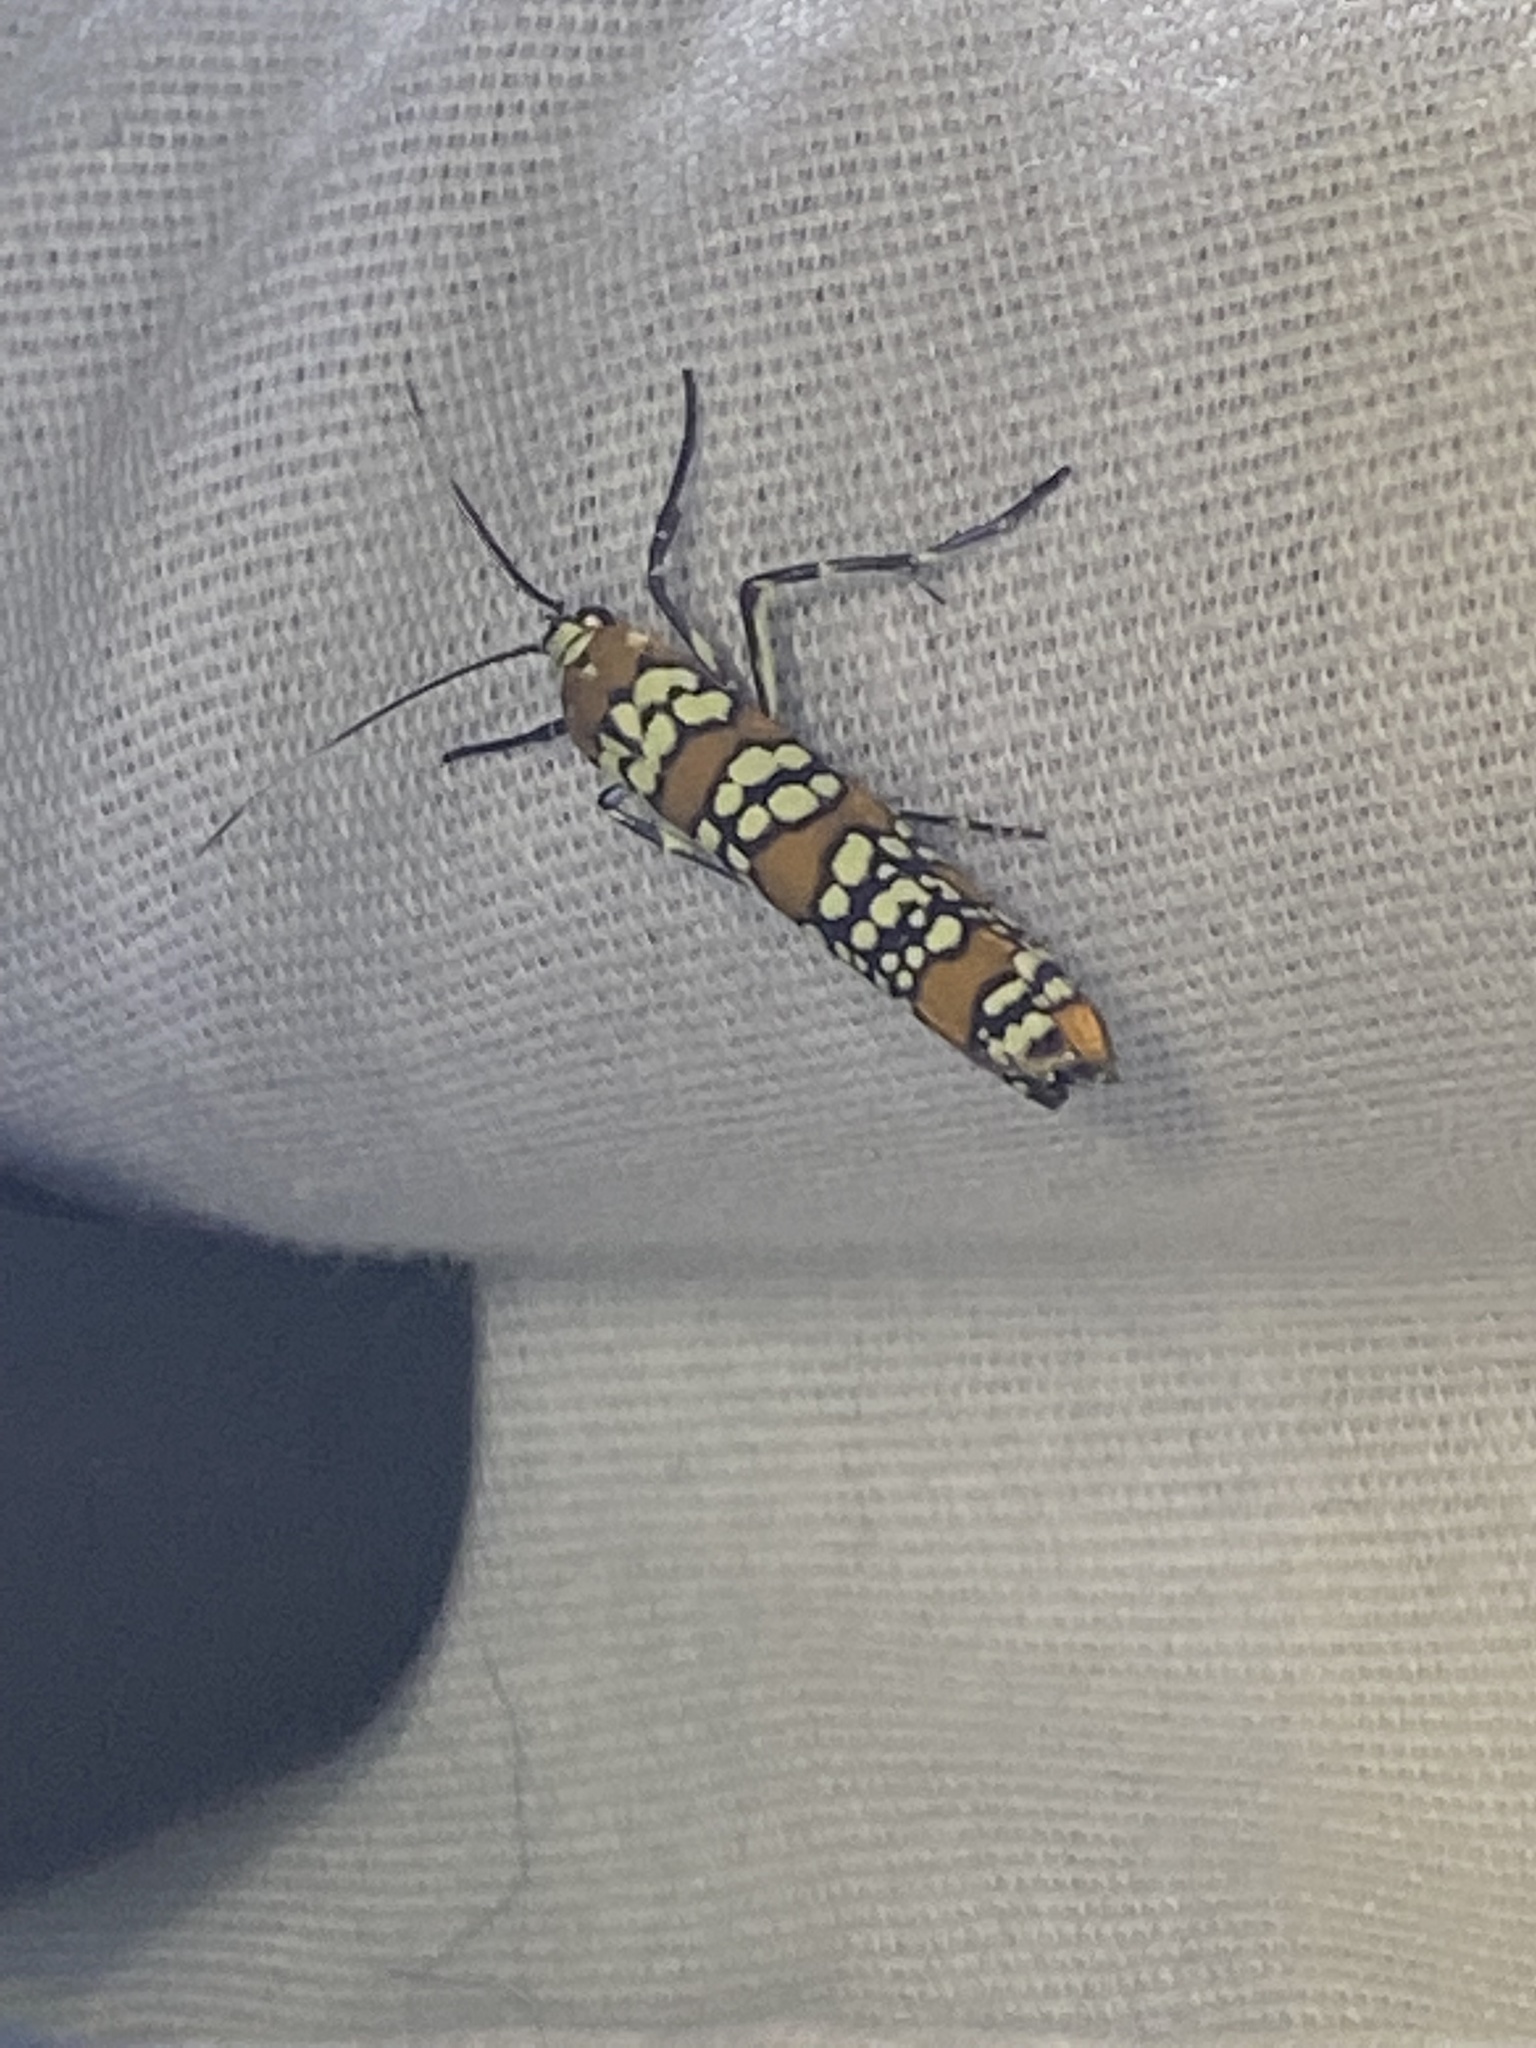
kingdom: Animalia
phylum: Arthropoda
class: Insecta
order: Lepidoptera
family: Attevidae
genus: Atteva
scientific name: Atteva punctella
